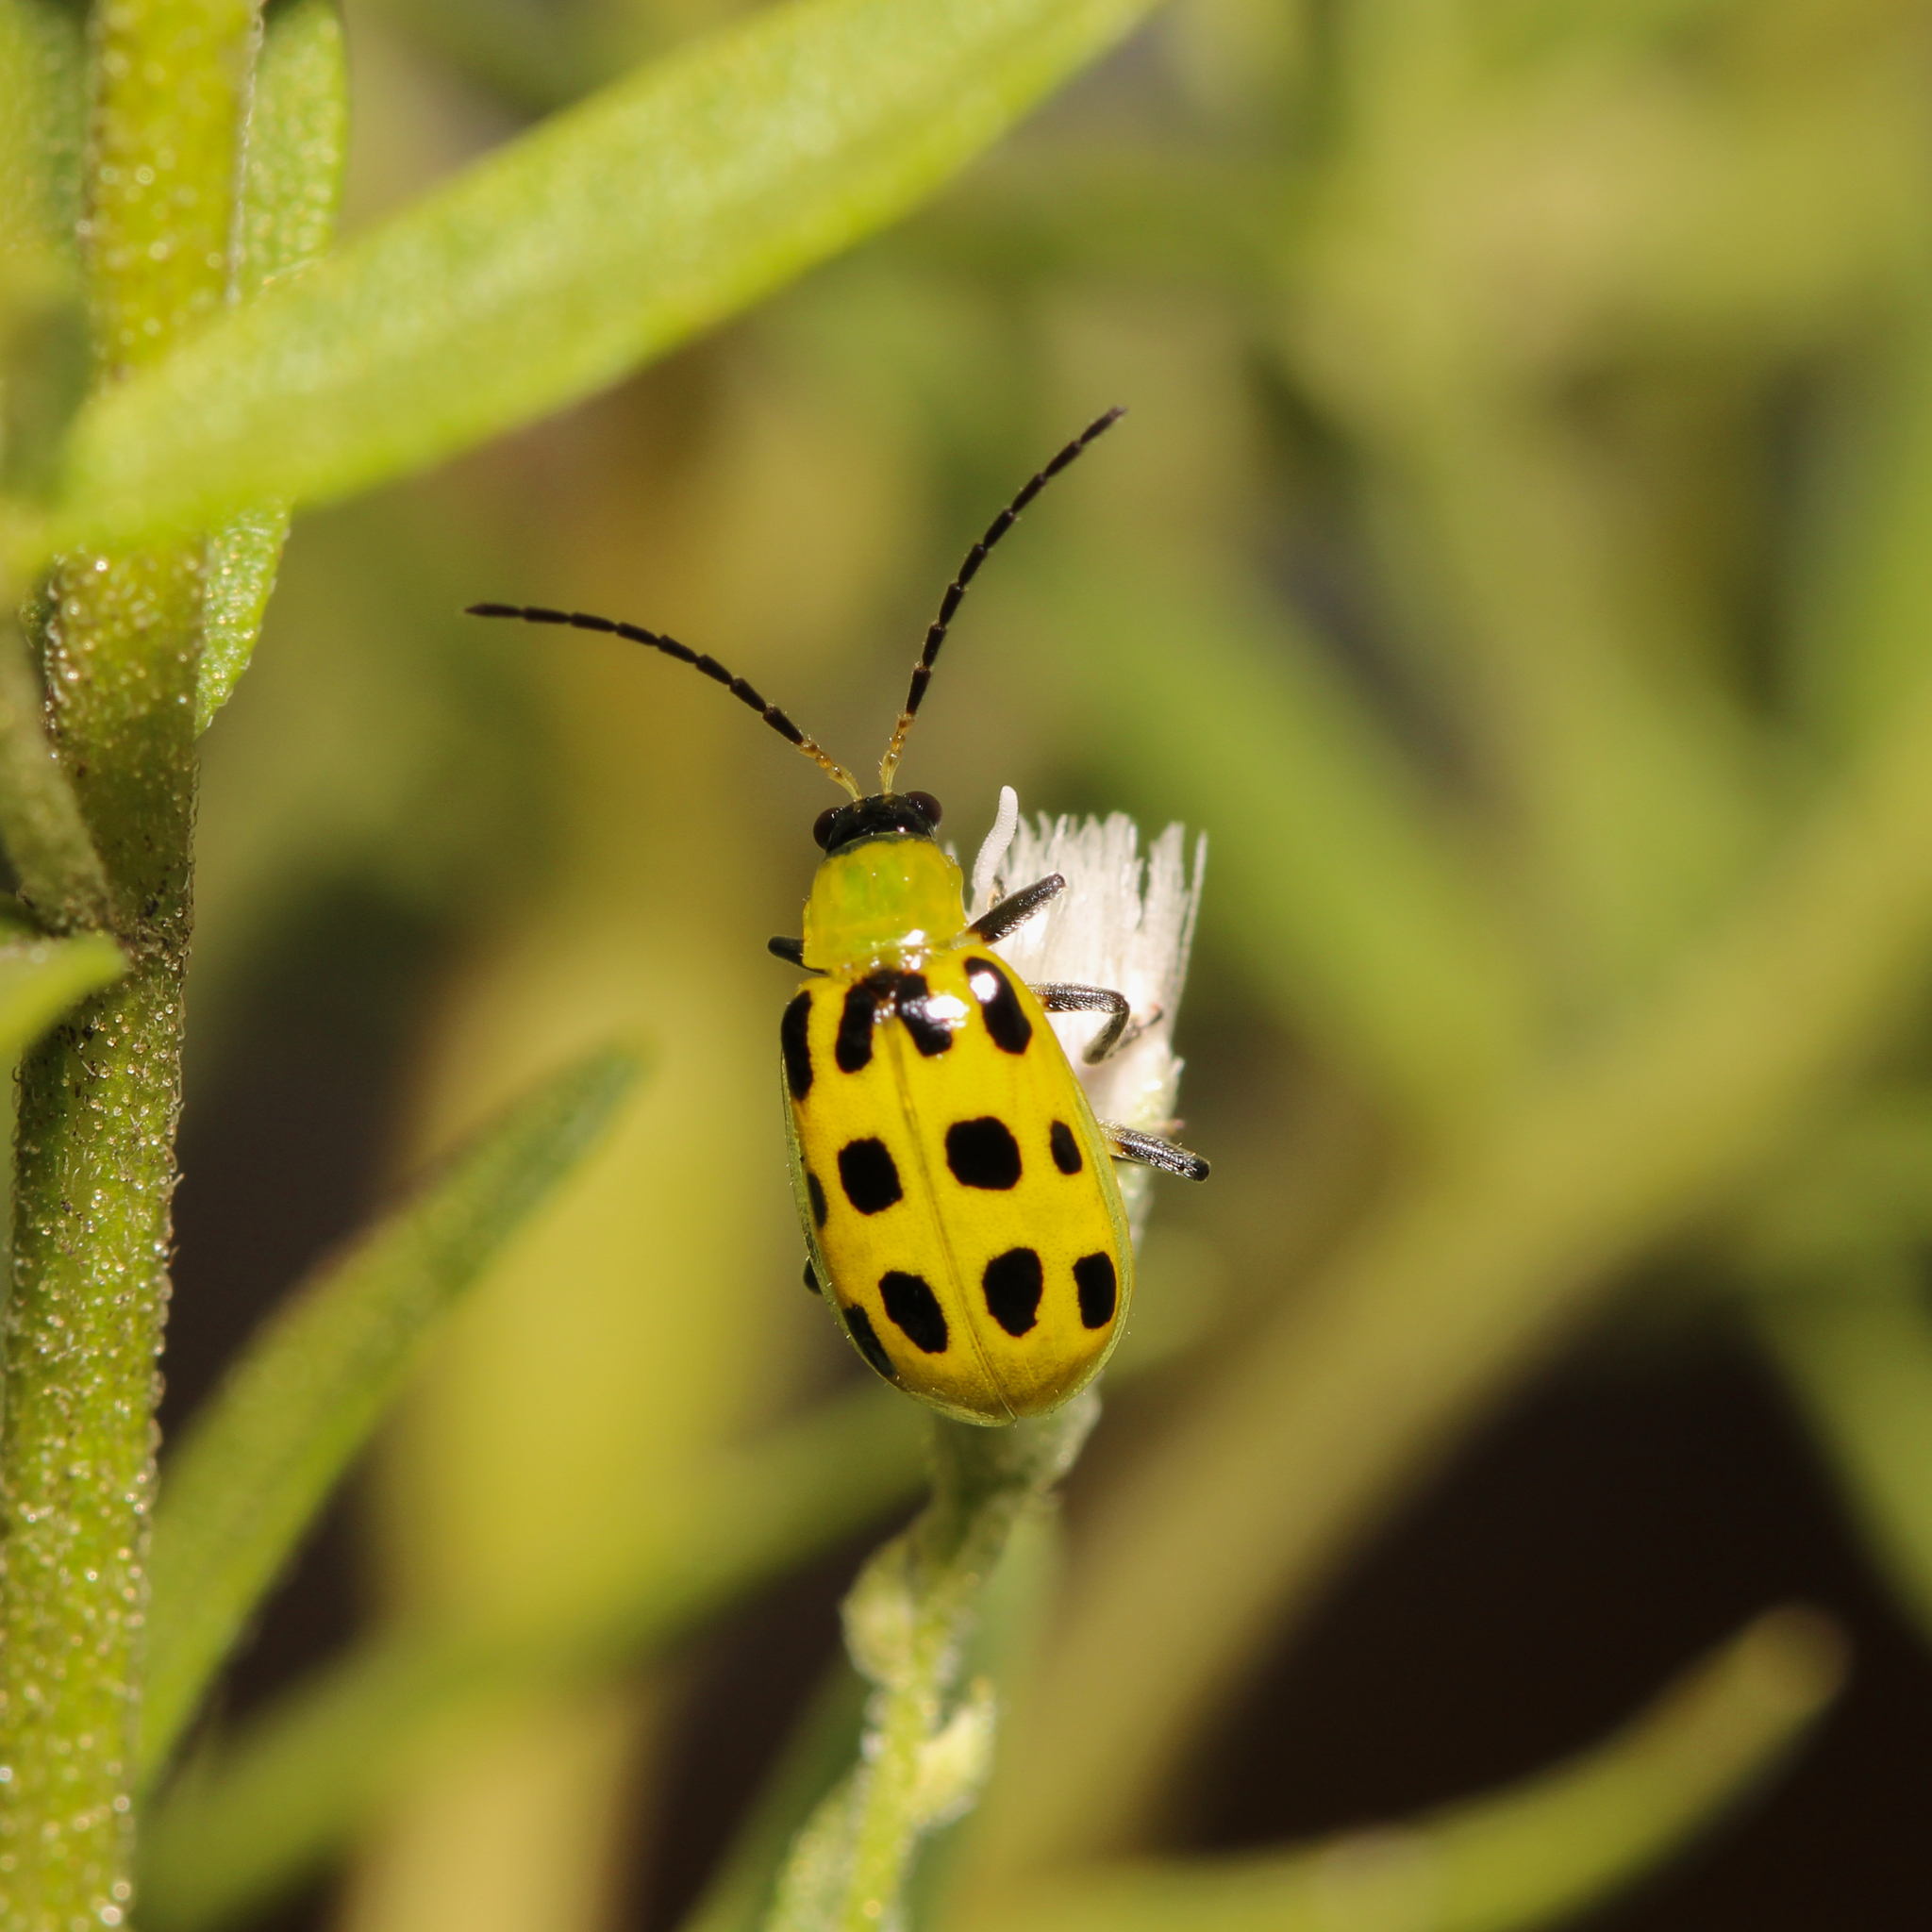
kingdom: Animalia
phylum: Arthropoda
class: Insecta
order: Coleoptera
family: Chrysomelidae
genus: Diabrotica
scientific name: Diabrotica undecimpunctata
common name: Spotted cucumber beetle
